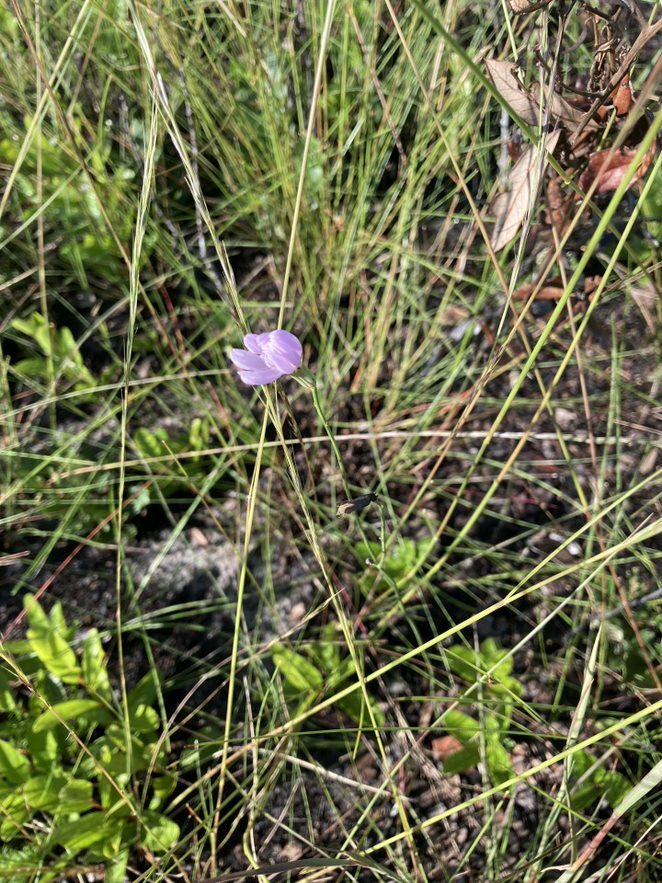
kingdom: Plantae
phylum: Tracheophyta
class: Magnoliopsida
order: Asterales
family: Asteraceae
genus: Lygodesmia
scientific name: Lygodesmia aphylla
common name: Rose-rush
